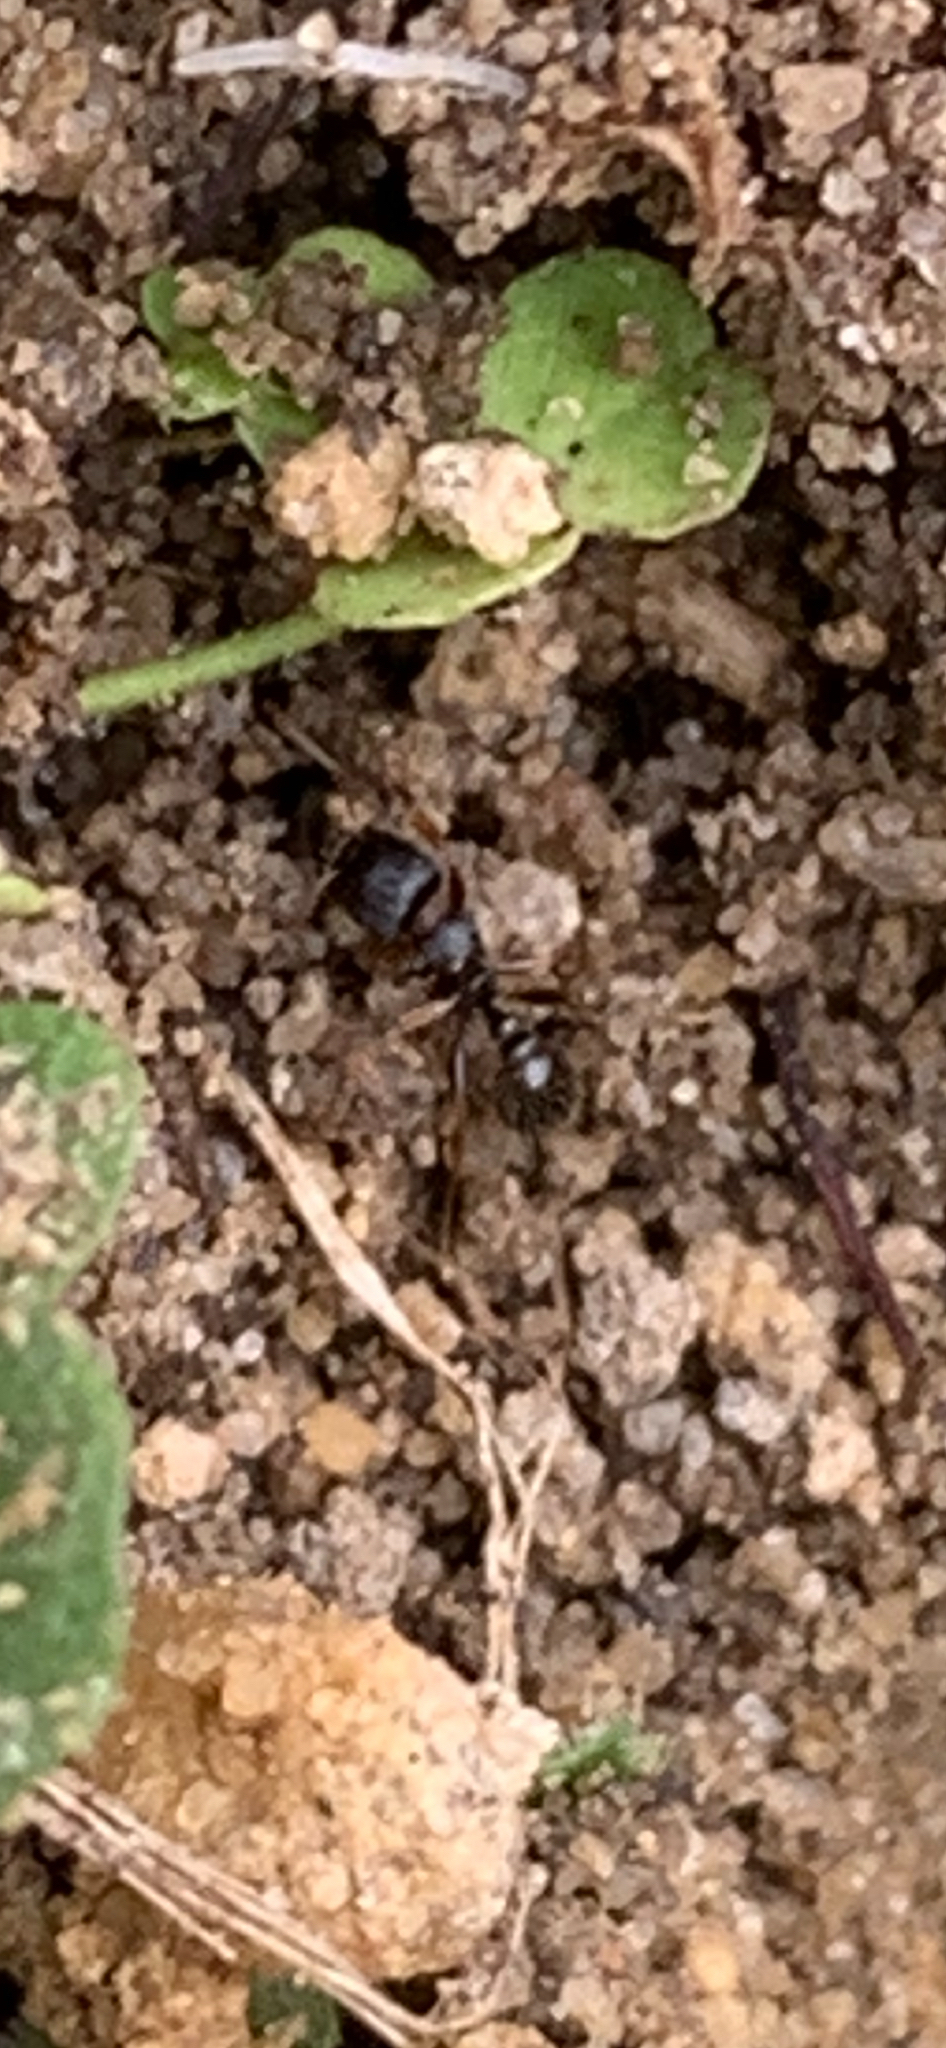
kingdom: Animalia
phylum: Arthropoda
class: Insecta
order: Hymenoptera
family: Formicidae
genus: Tetramorium
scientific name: Tetramorium immigrans
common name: Pavement ant
